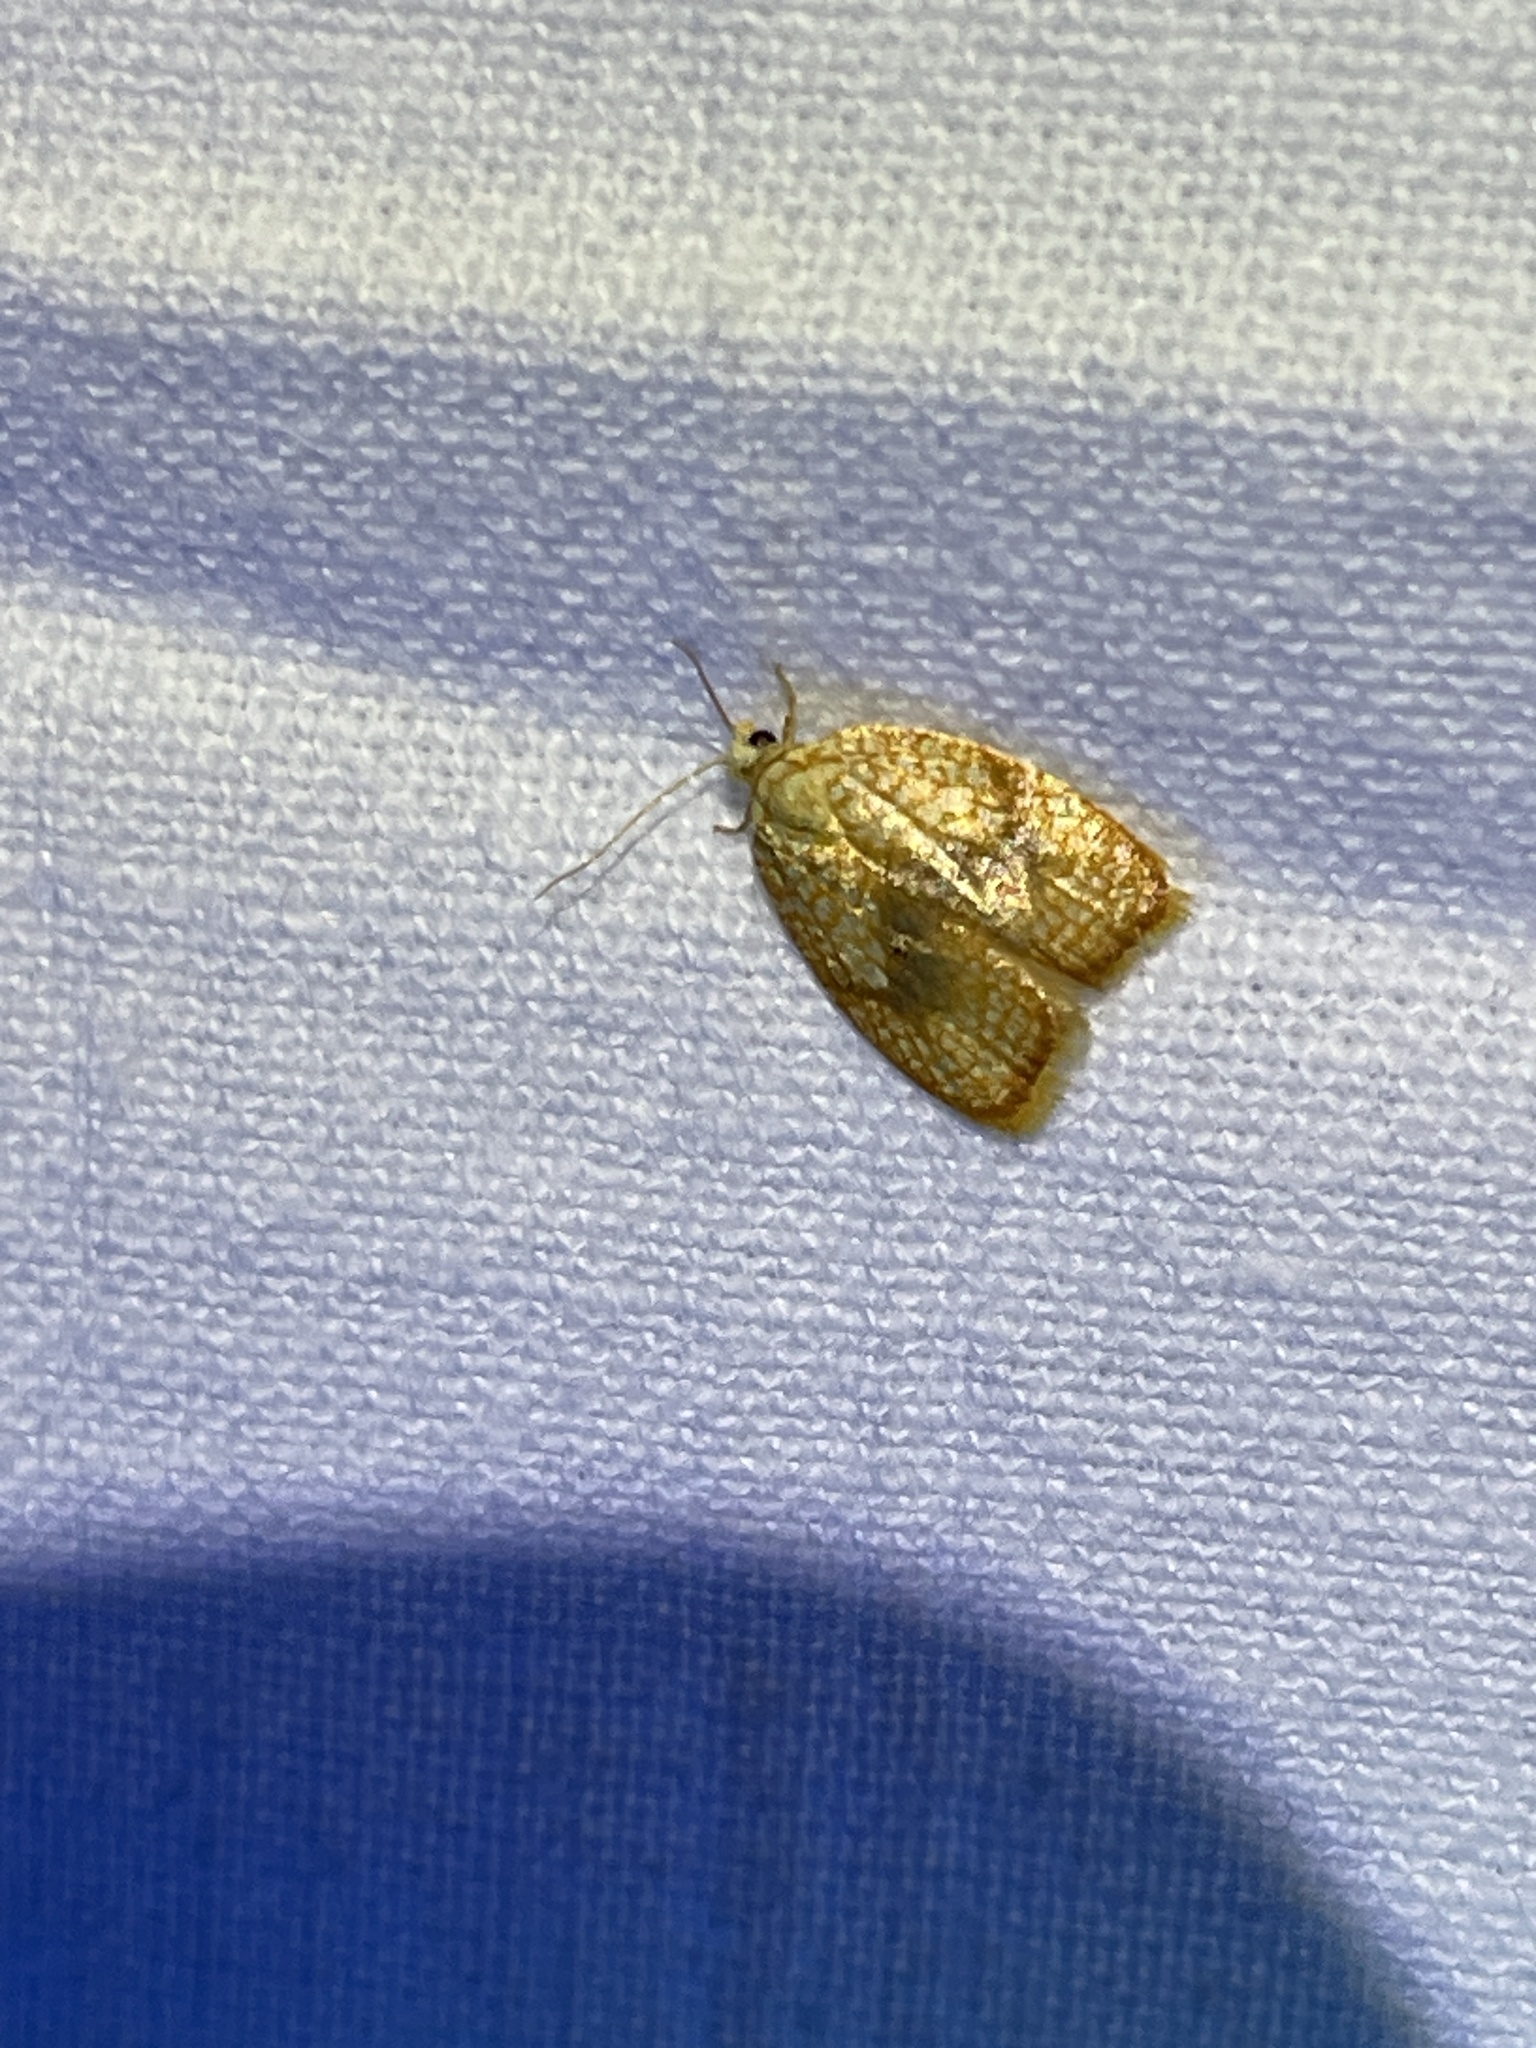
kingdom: Animalia
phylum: Arthropoda
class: Insecta
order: Lepidoptera
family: Tortricidae
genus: Acleris
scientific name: Acleris forsskaleana
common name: Maple button
